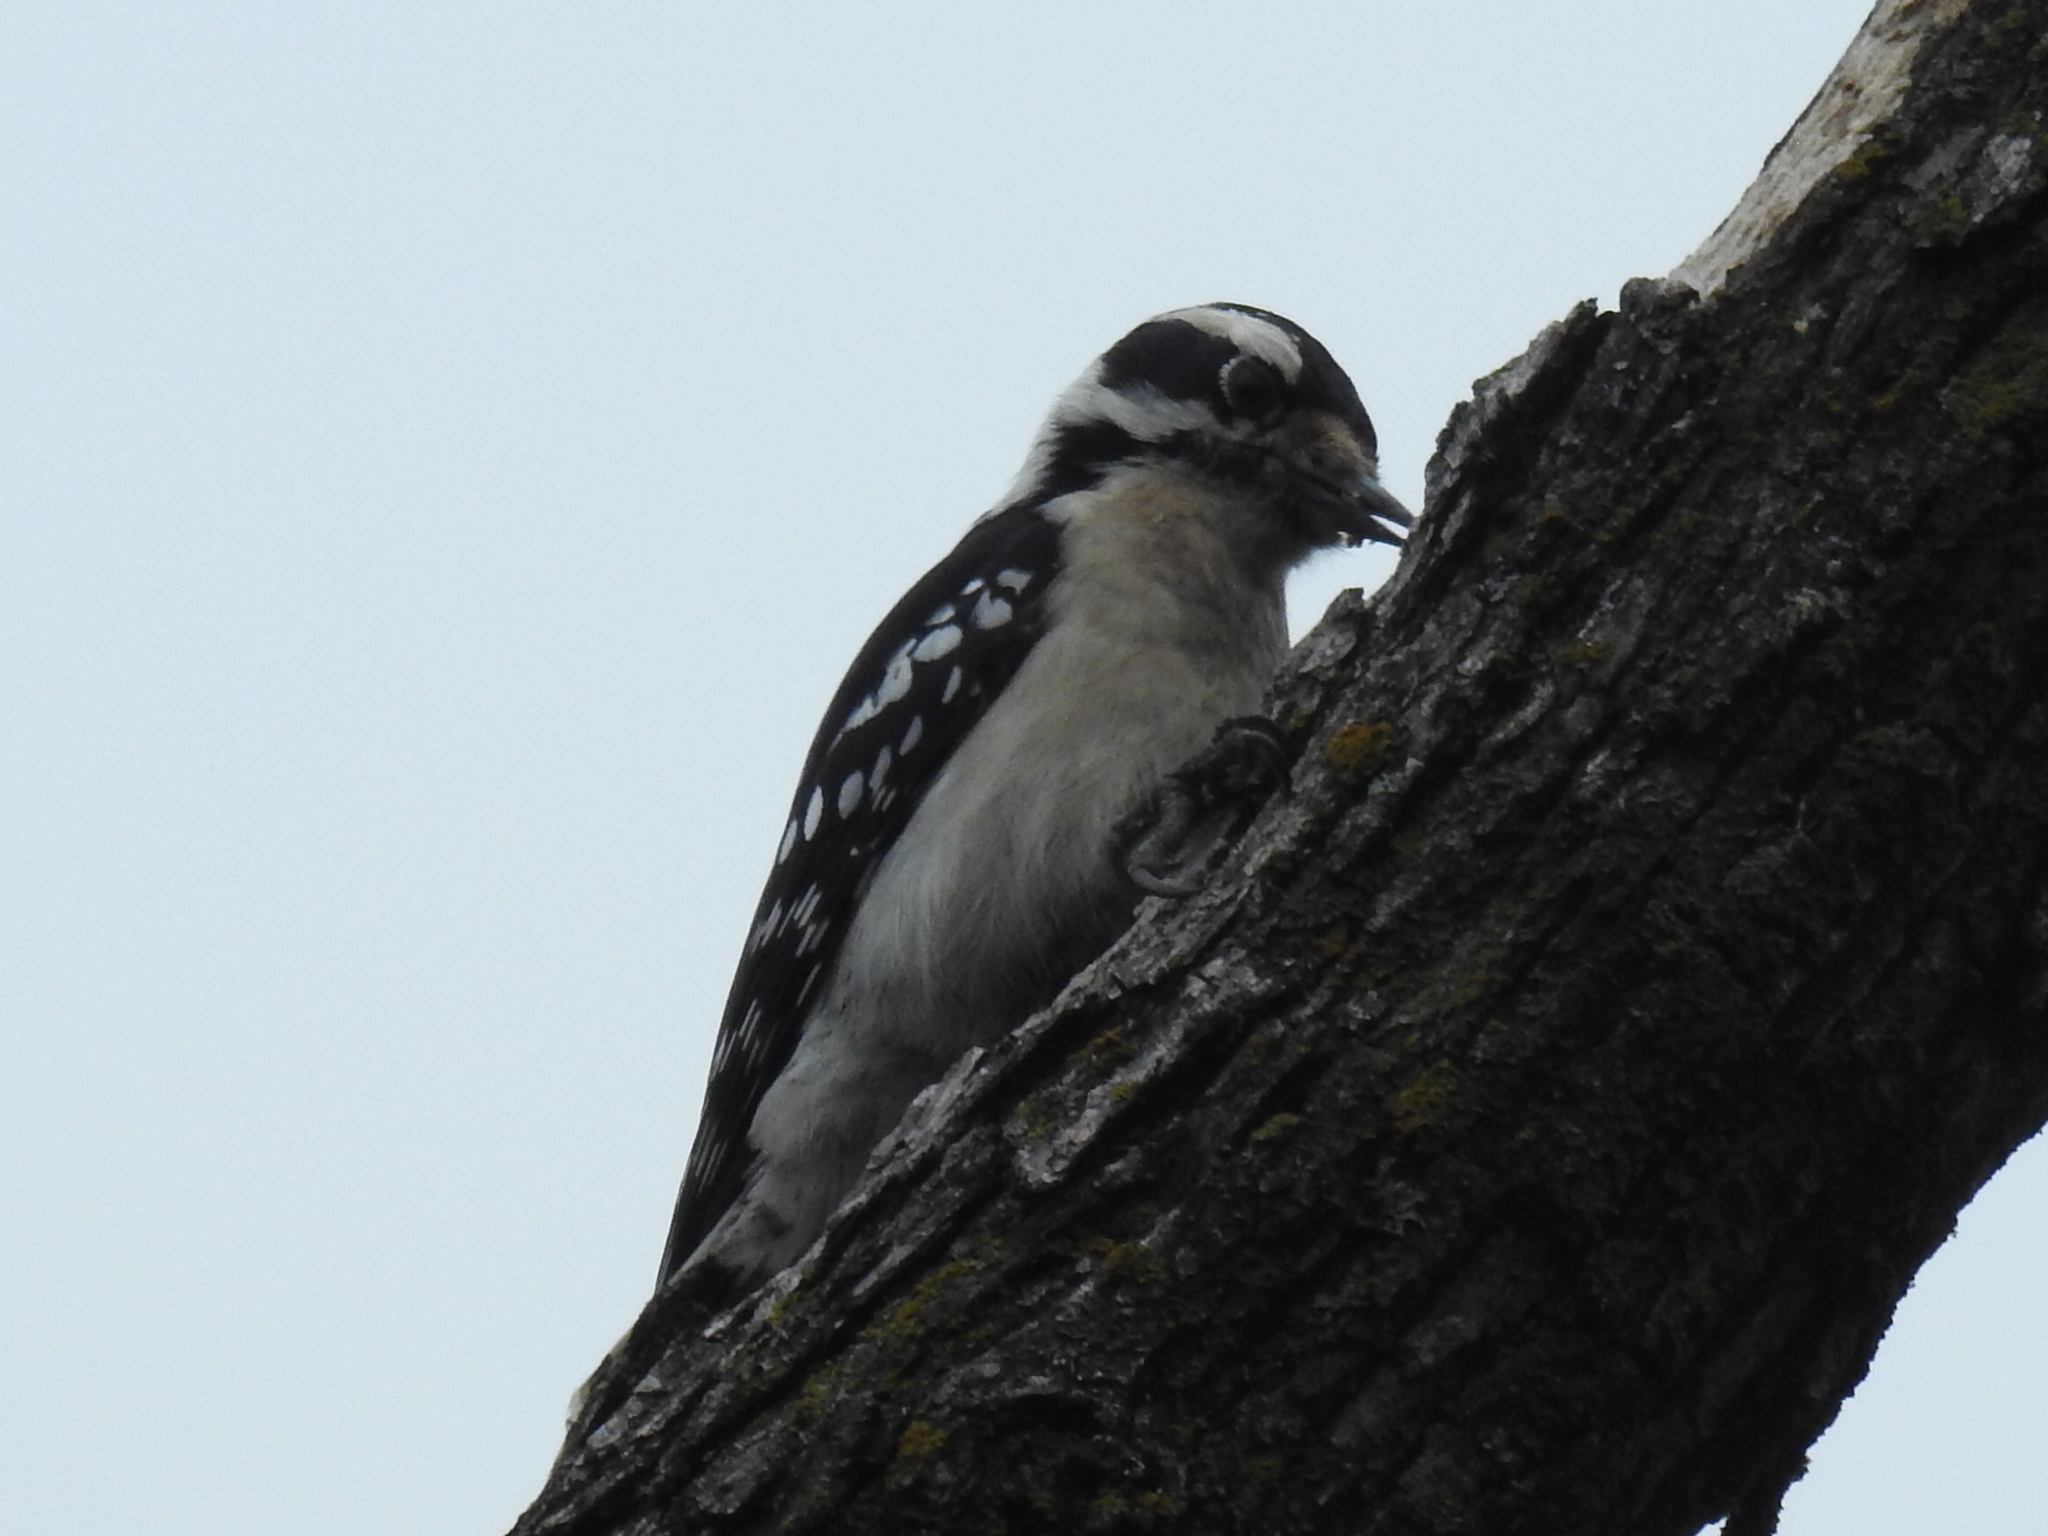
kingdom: Animalia
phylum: Chordata
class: Aves
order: Piciformes
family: Picidae
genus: Dryobates
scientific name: Dryobates pubescens
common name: Downy woodpecker
